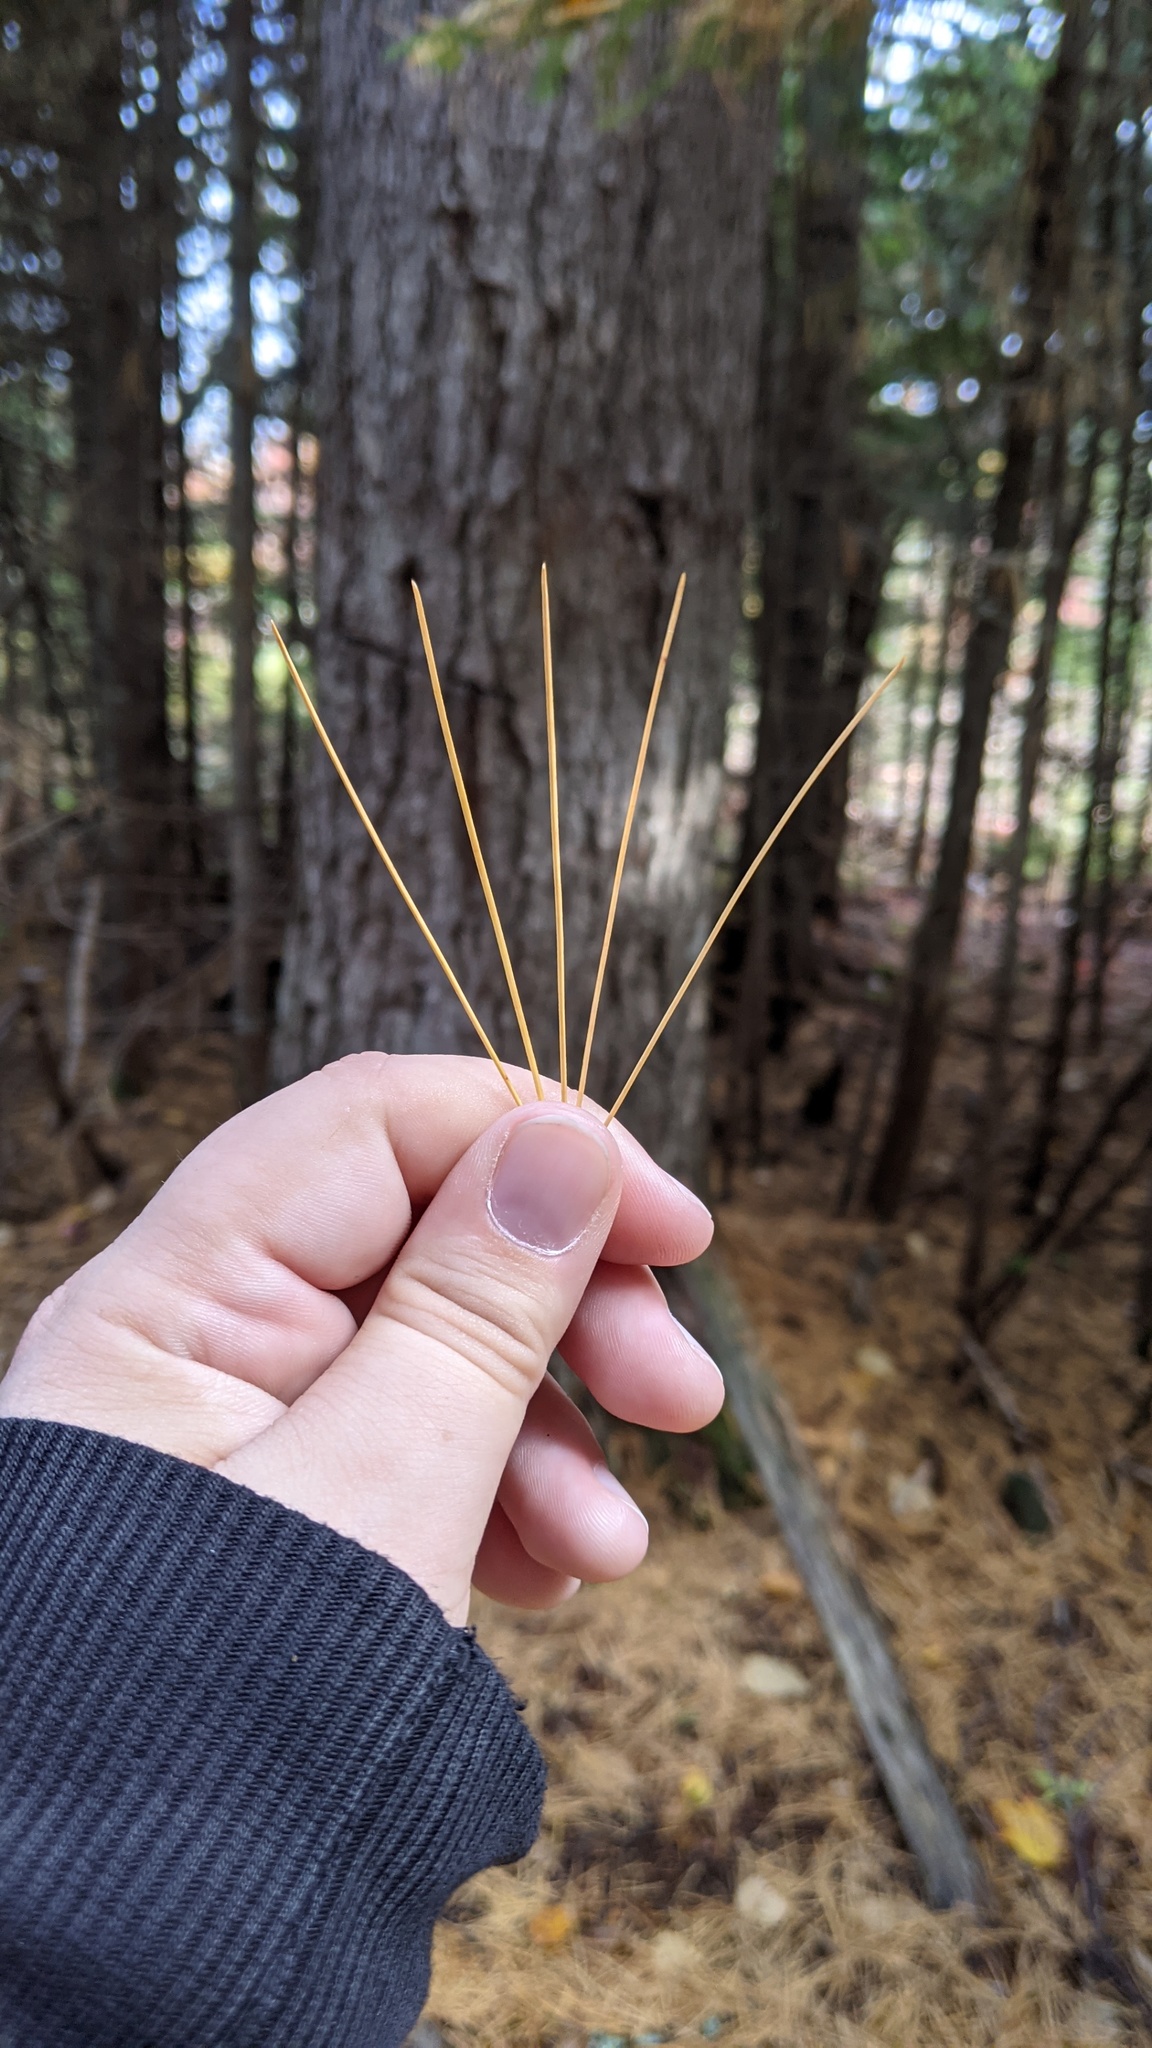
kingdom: Plantae
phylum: Tracheophyta
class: Pinopsida
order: Pinales
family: Pinaceae
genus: Pinus
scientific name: Pinus strobus
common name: Weymouth pine
